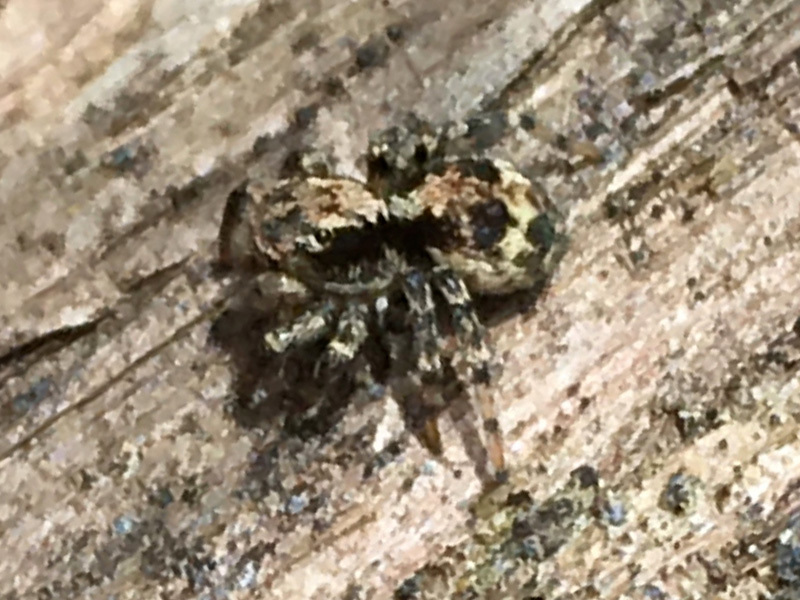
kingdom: Animalia
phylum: Arthropoda
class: Arachnida
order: Araneae
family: Salticidae
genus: Naphrys
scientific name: Naphrys pulex
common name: Flea jumping spider
